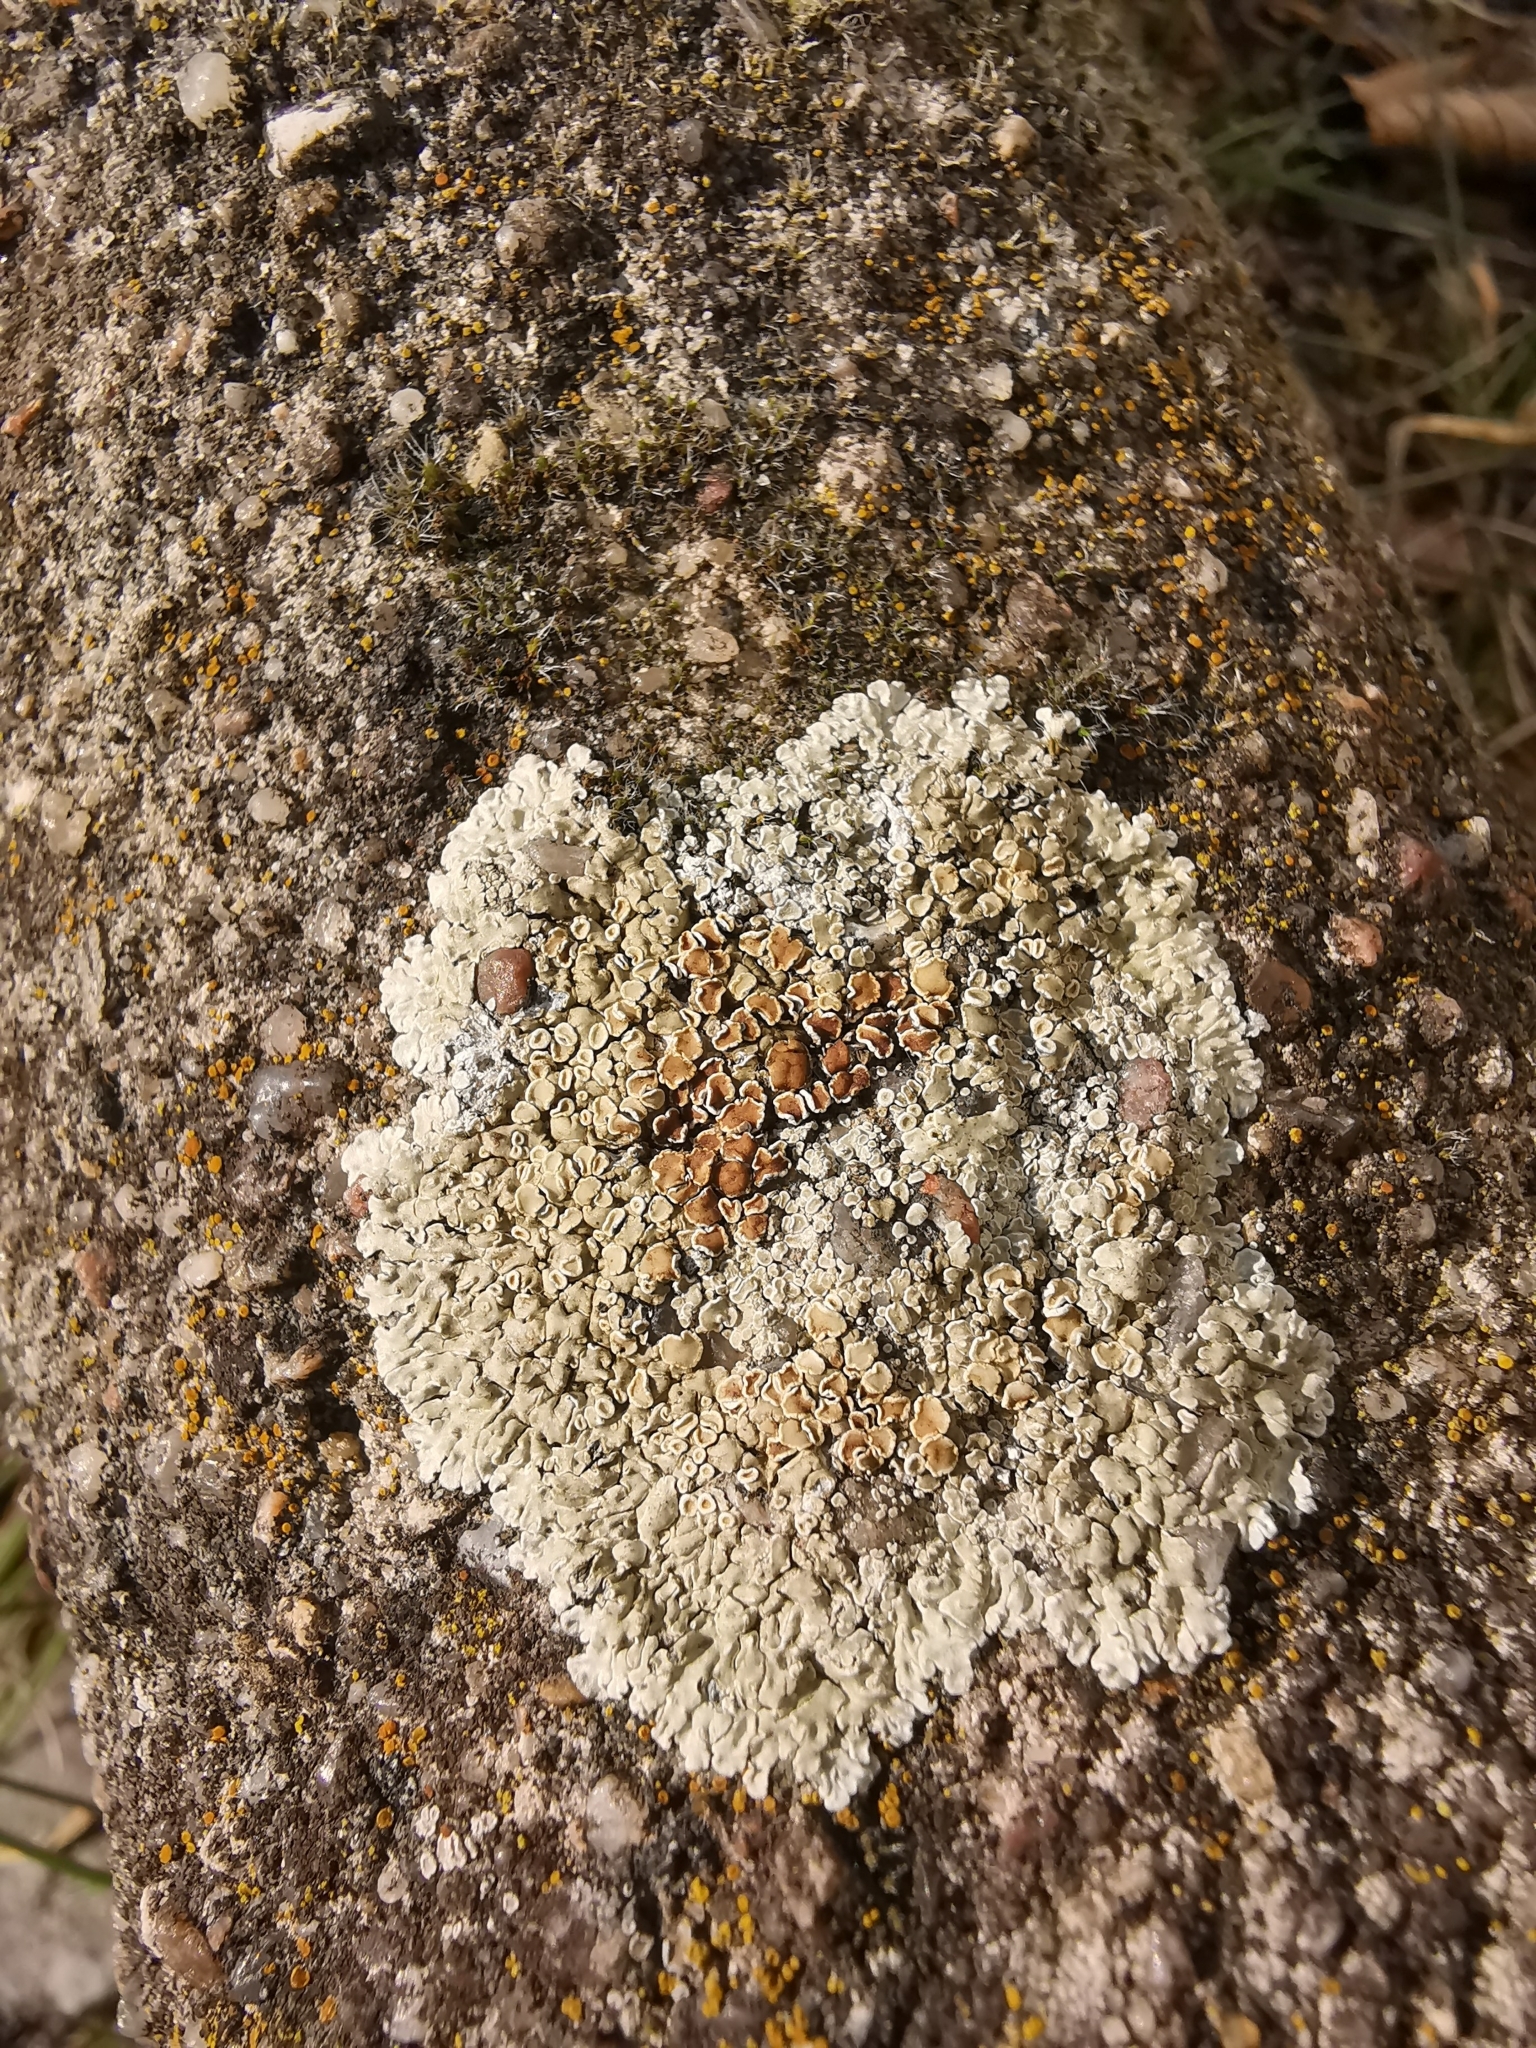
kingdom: Fungi
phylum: Ascomycota
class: Lecanoromycetes
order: Lecanorales
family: Lecanoraceae
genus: Protoparmeliopsis
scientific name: Protoparmeliopsis muralis
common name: Stonewall rim lichen
